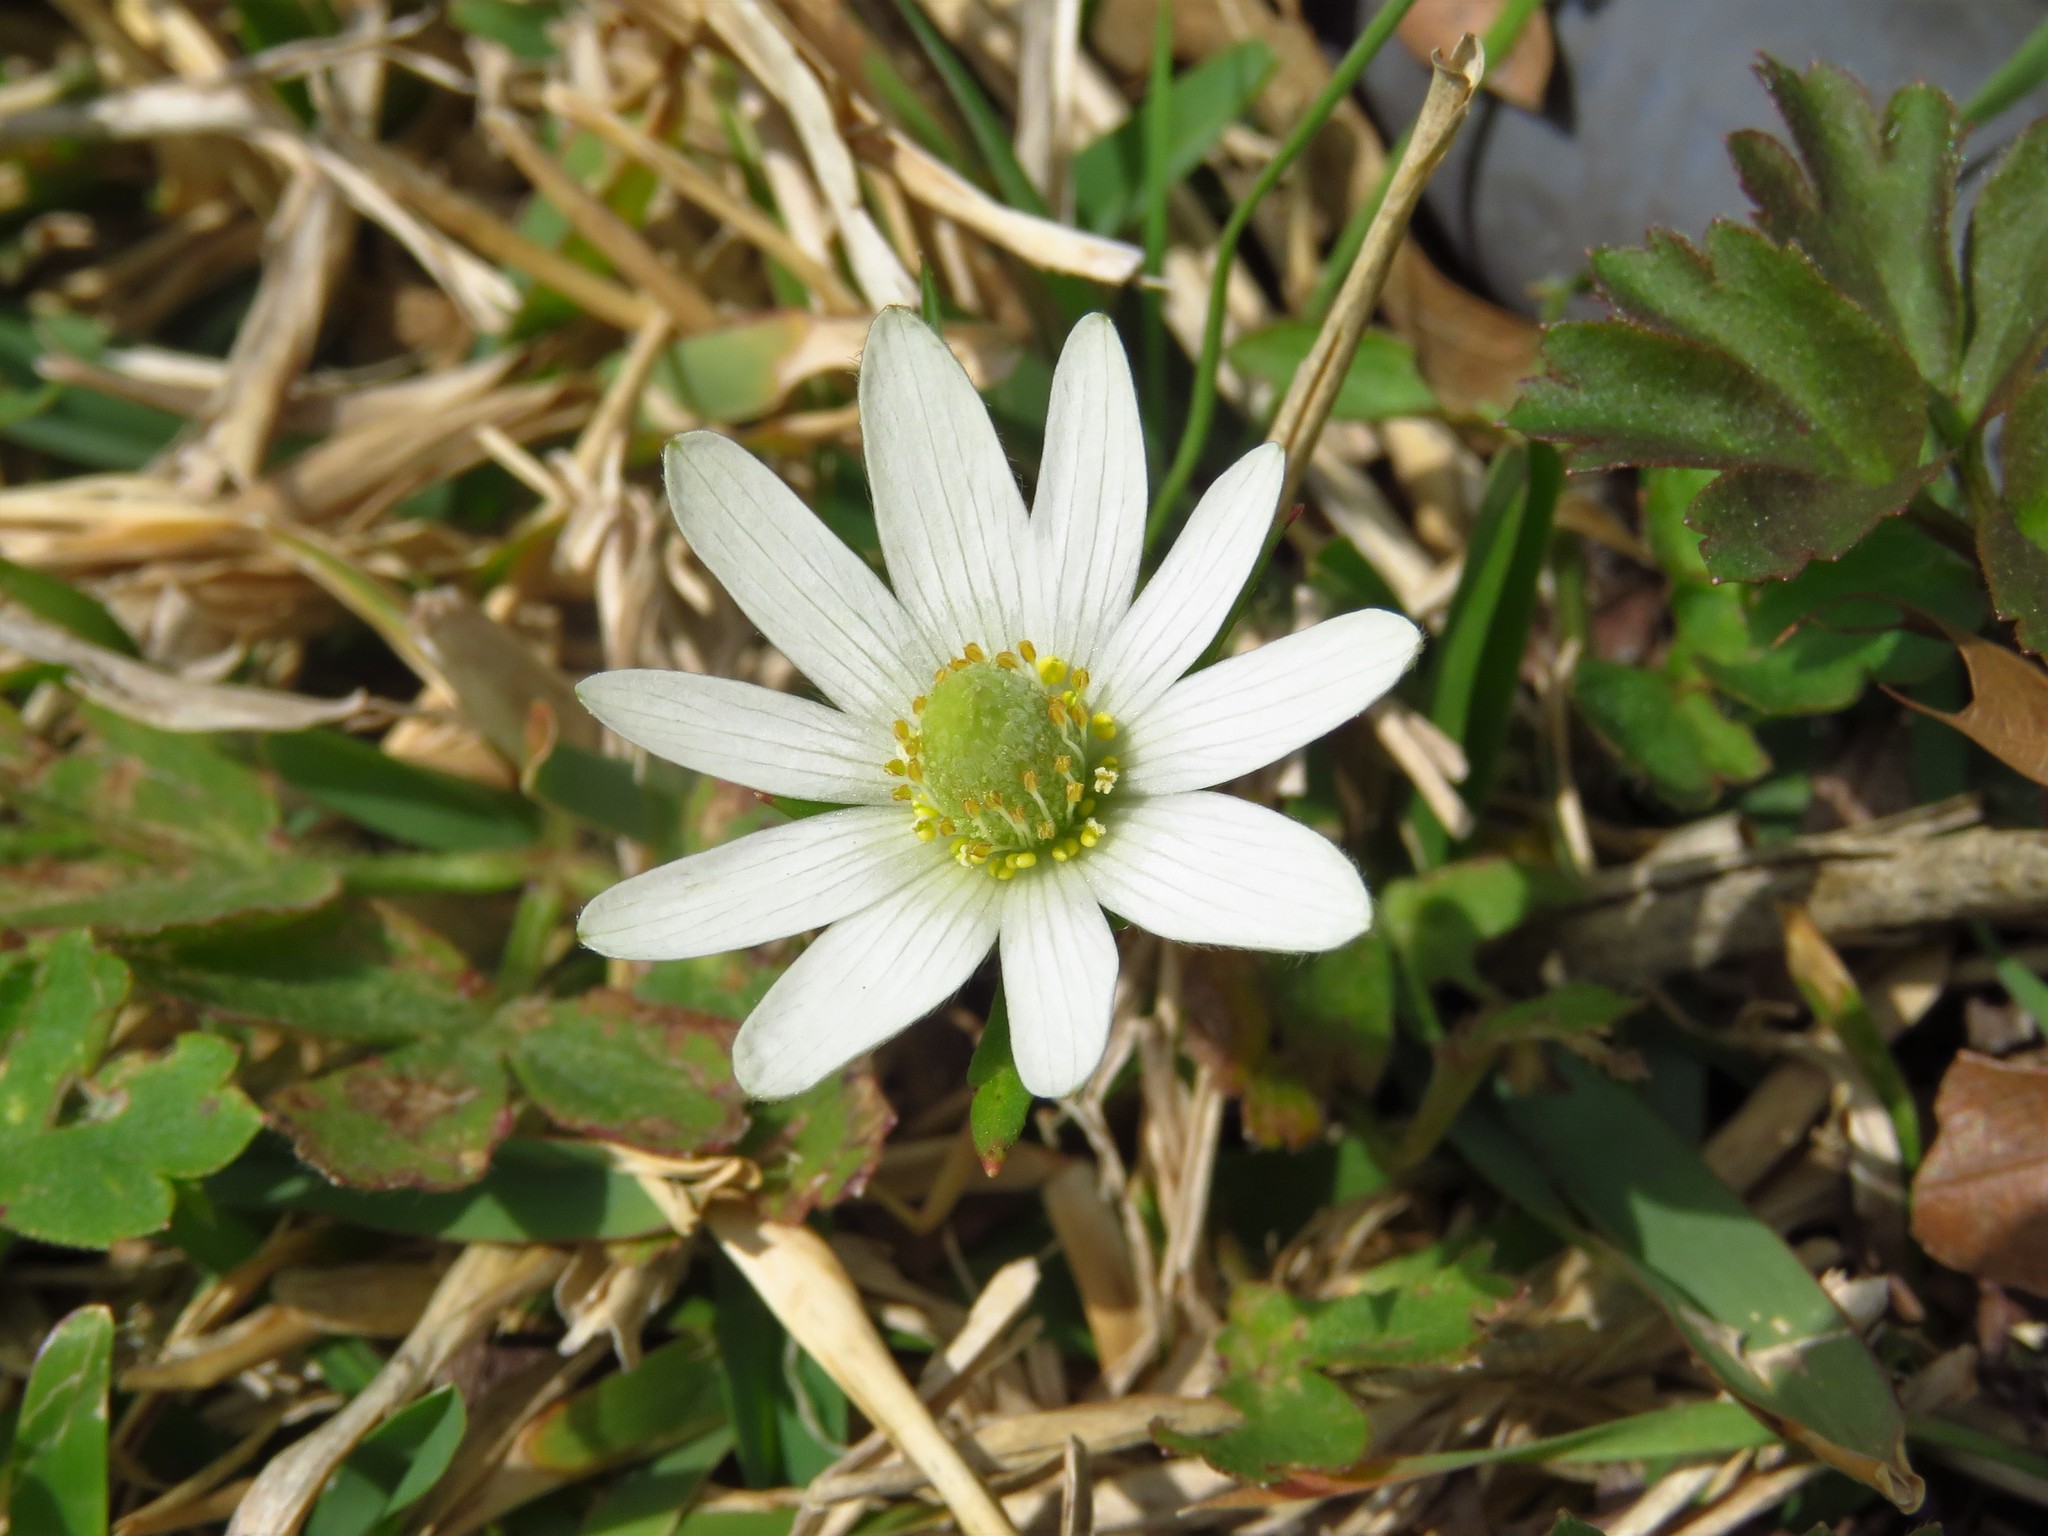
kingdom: Plantae
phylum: Tracheophyta
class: Magnoliopsida
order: Ranunculales
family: Ranunculaceae
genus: Anemone
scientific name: Anemone berlandieri
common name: Ten-petal anemone
